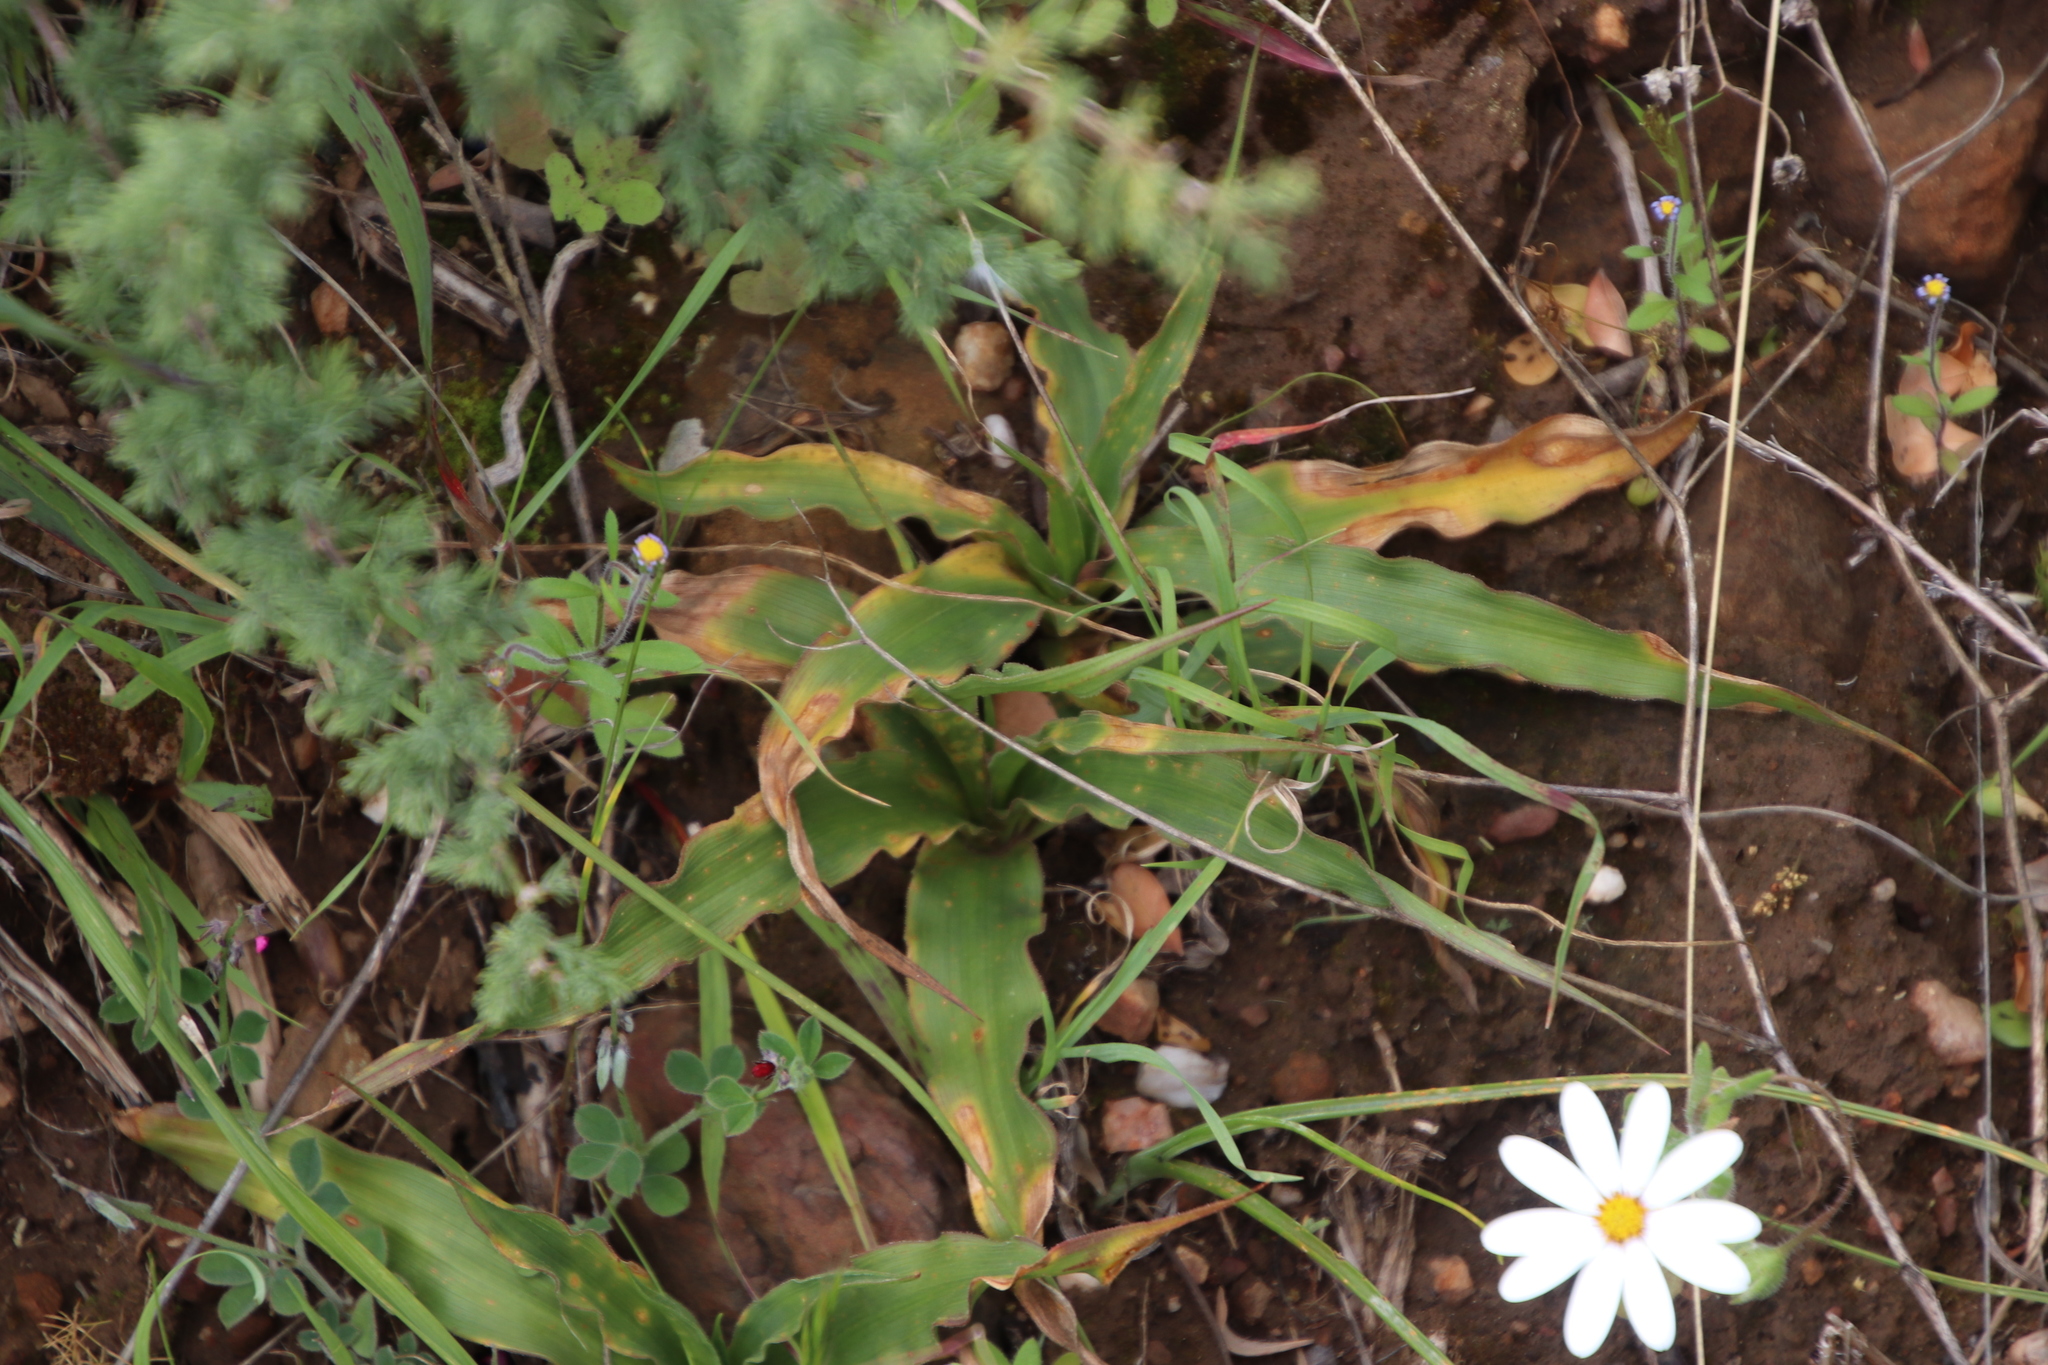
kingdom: Plantae
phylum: Tracheophyta
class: Liliopsida
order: Asparagales
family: Tecophilaeaceae
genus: Cyanella
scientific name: Cyanella hyacinthoides
